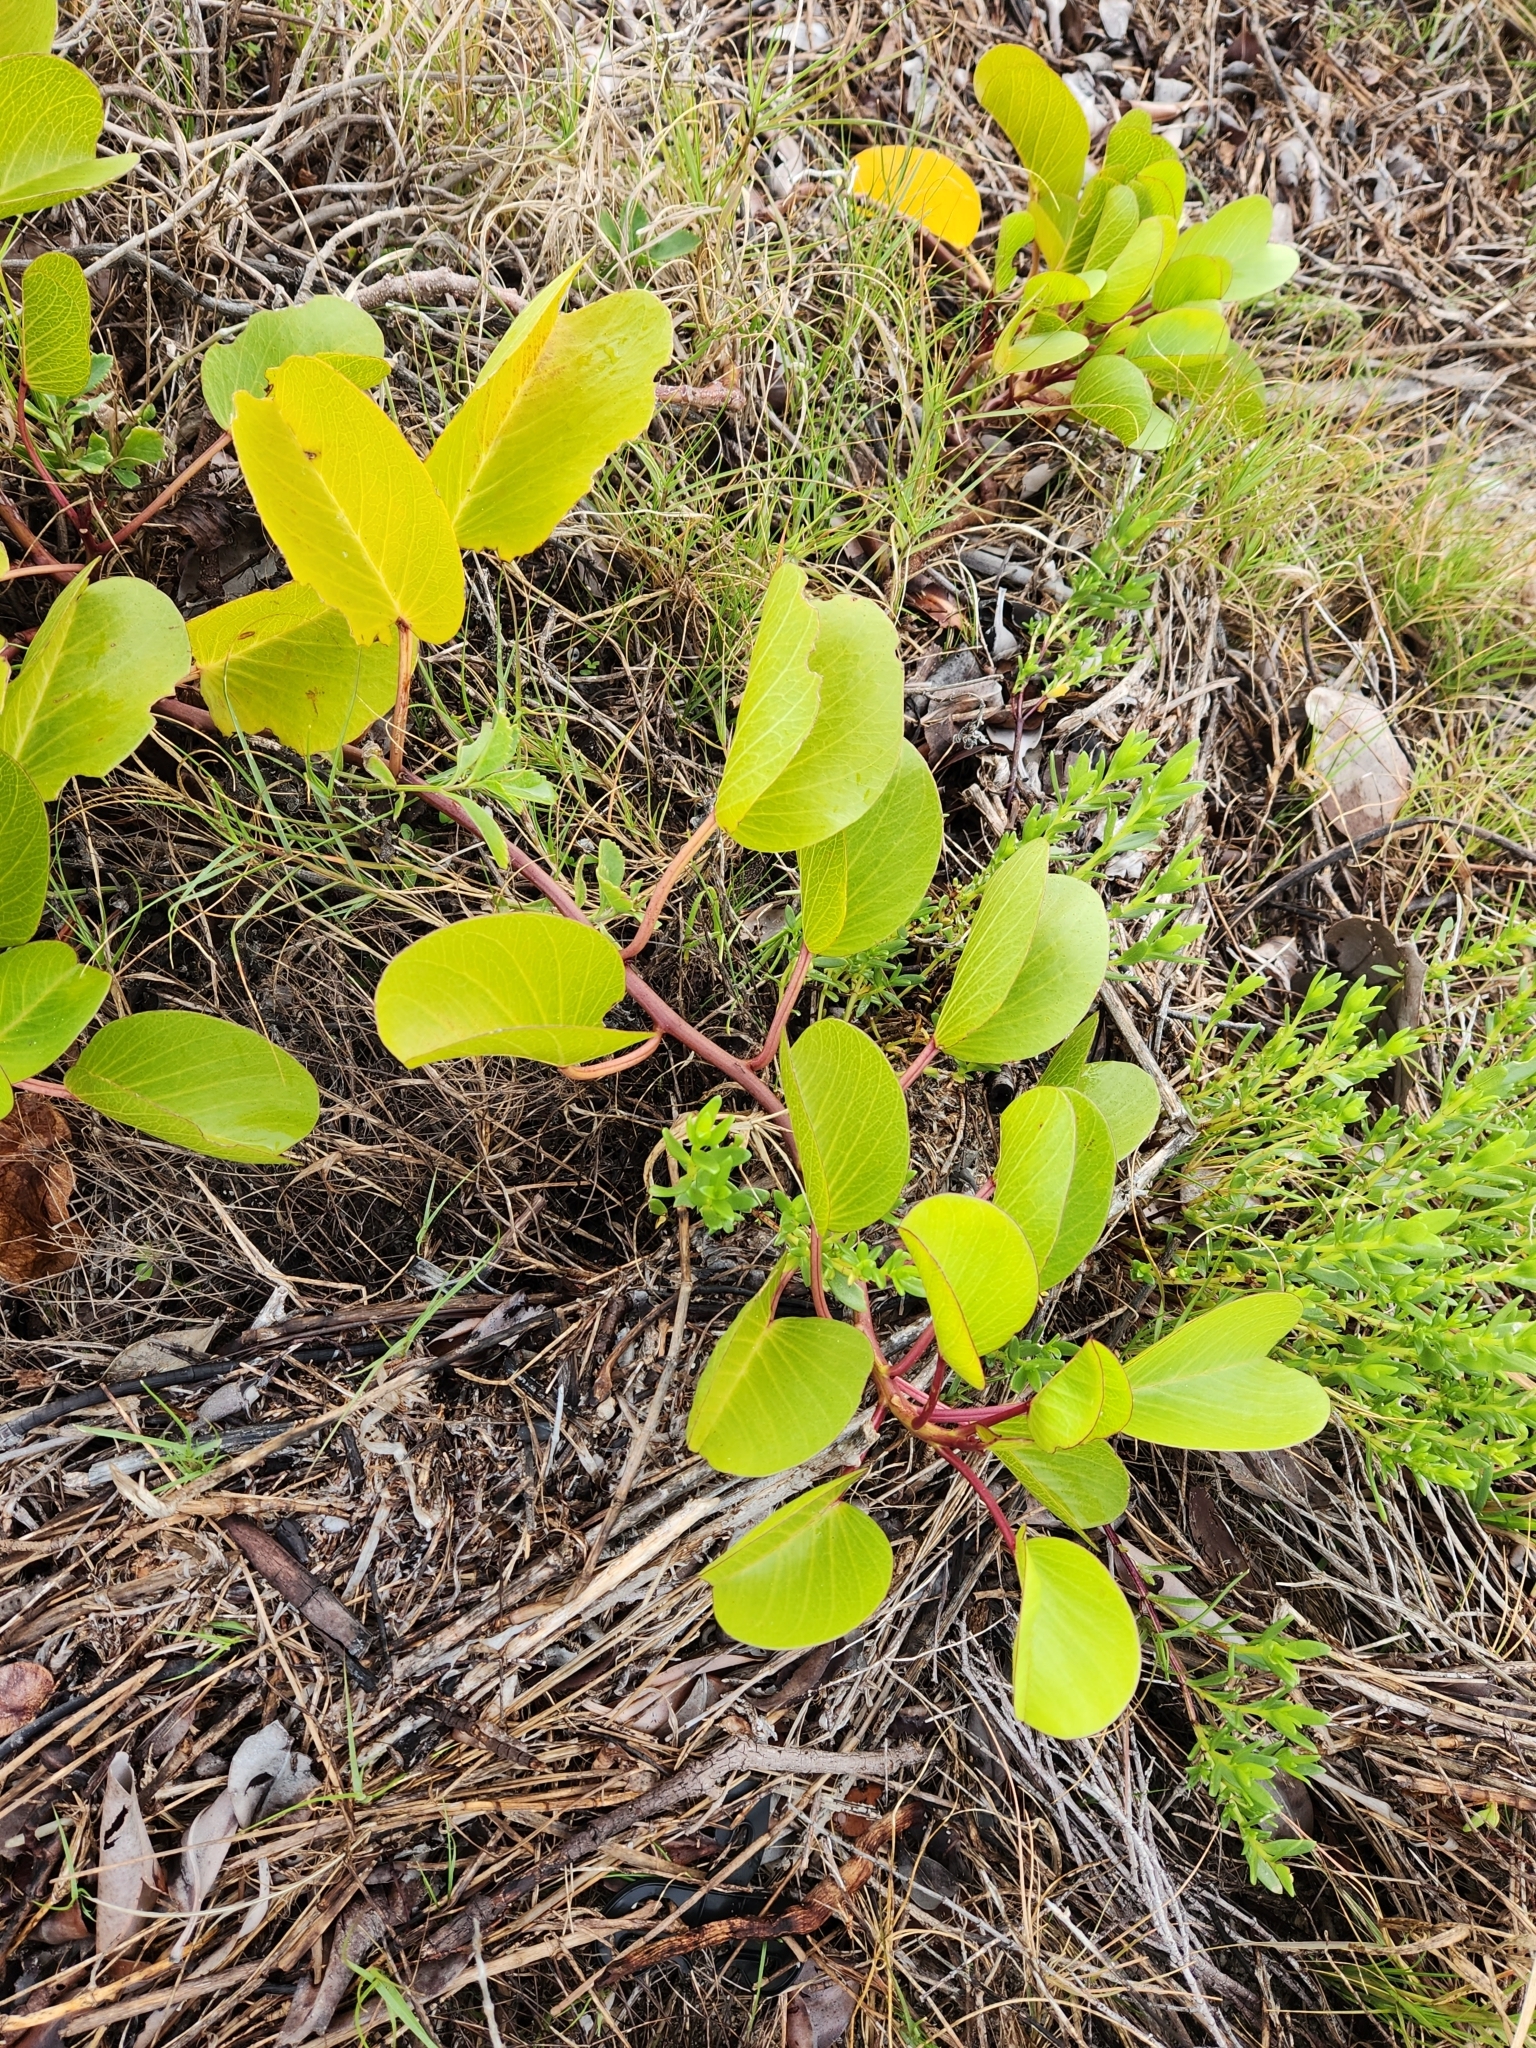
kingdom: Plantae
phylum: Tracheophyta
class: Magnoliopsida
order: Solanales
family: Convolvulaceae
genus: Ipomoea
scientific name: Ipomoea pes-caprae
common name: Beach morning glory
